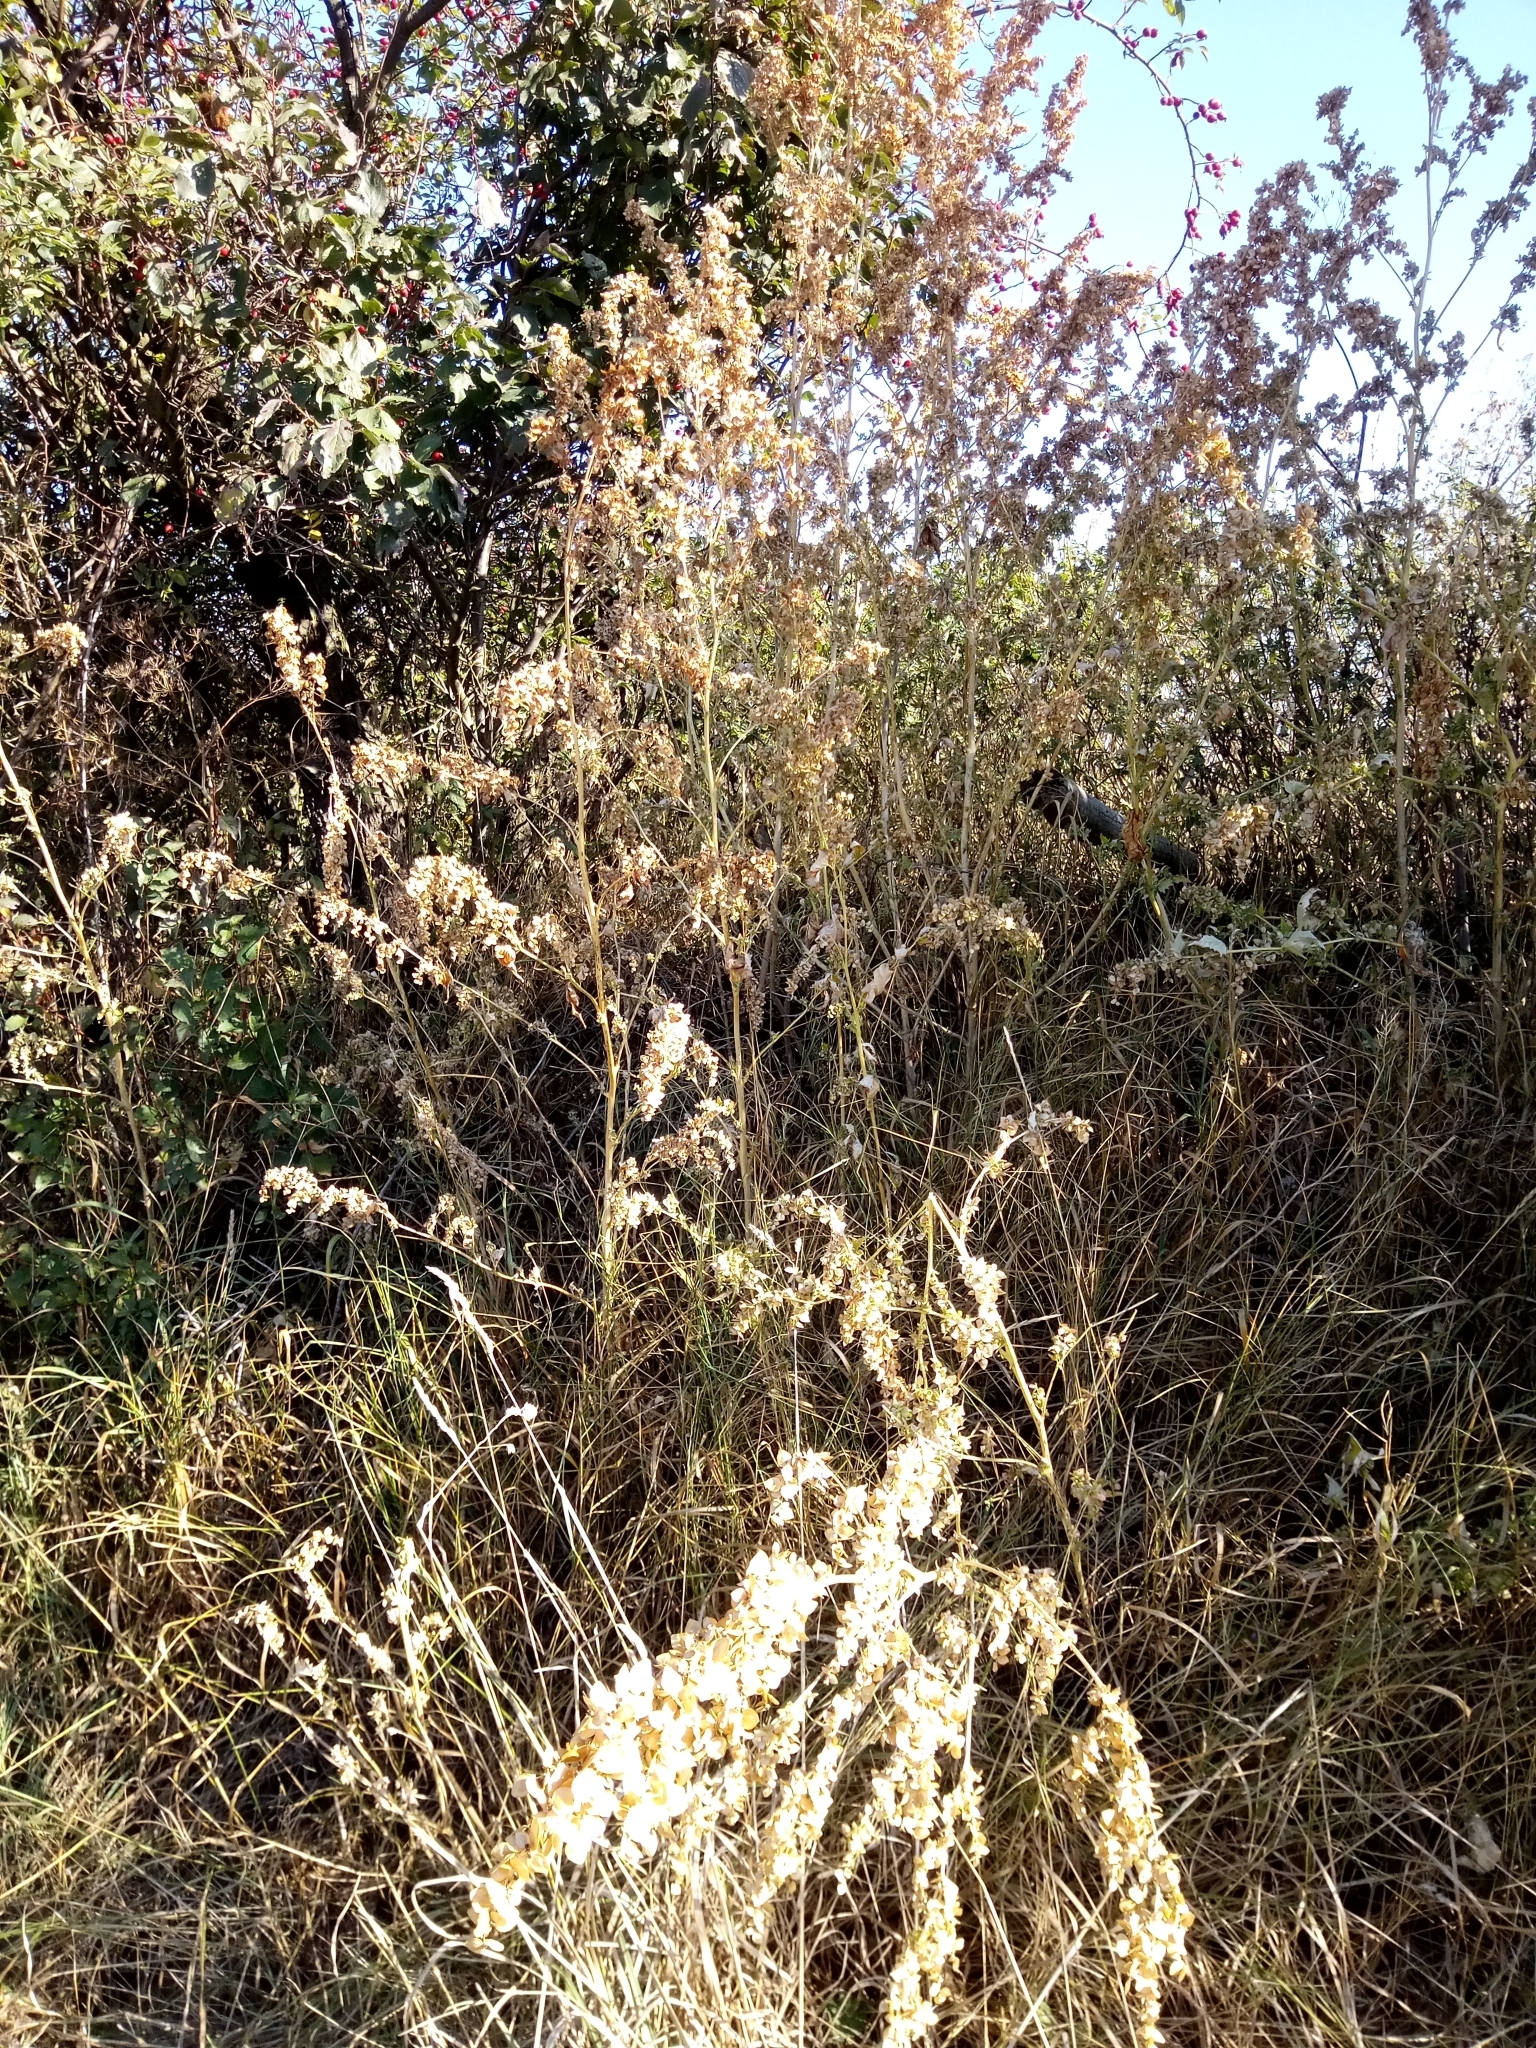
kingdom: Plantae
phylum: Tracheophyta
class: Magnoliopsida
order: Caryophyllales
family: Amaranthaceae
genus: Atriplex
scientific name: Atriplex sagittata
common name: Purple orache
